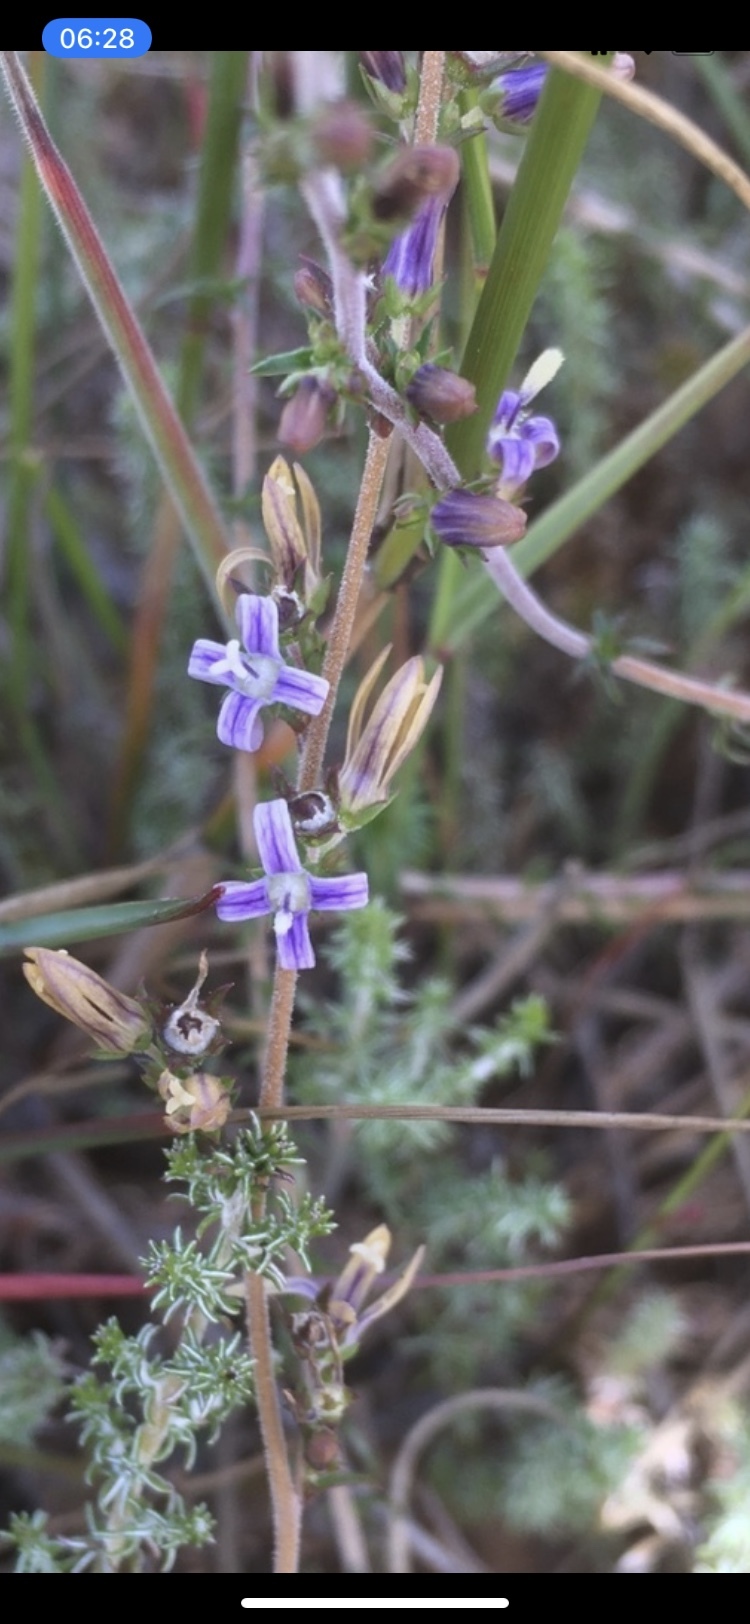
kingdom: Plantae
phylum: Tracheophyta
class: Magnoliopsida
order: Asterales
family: Campanulaceae
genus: Wahlenbergia
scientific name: Wahlenbergia tenella
